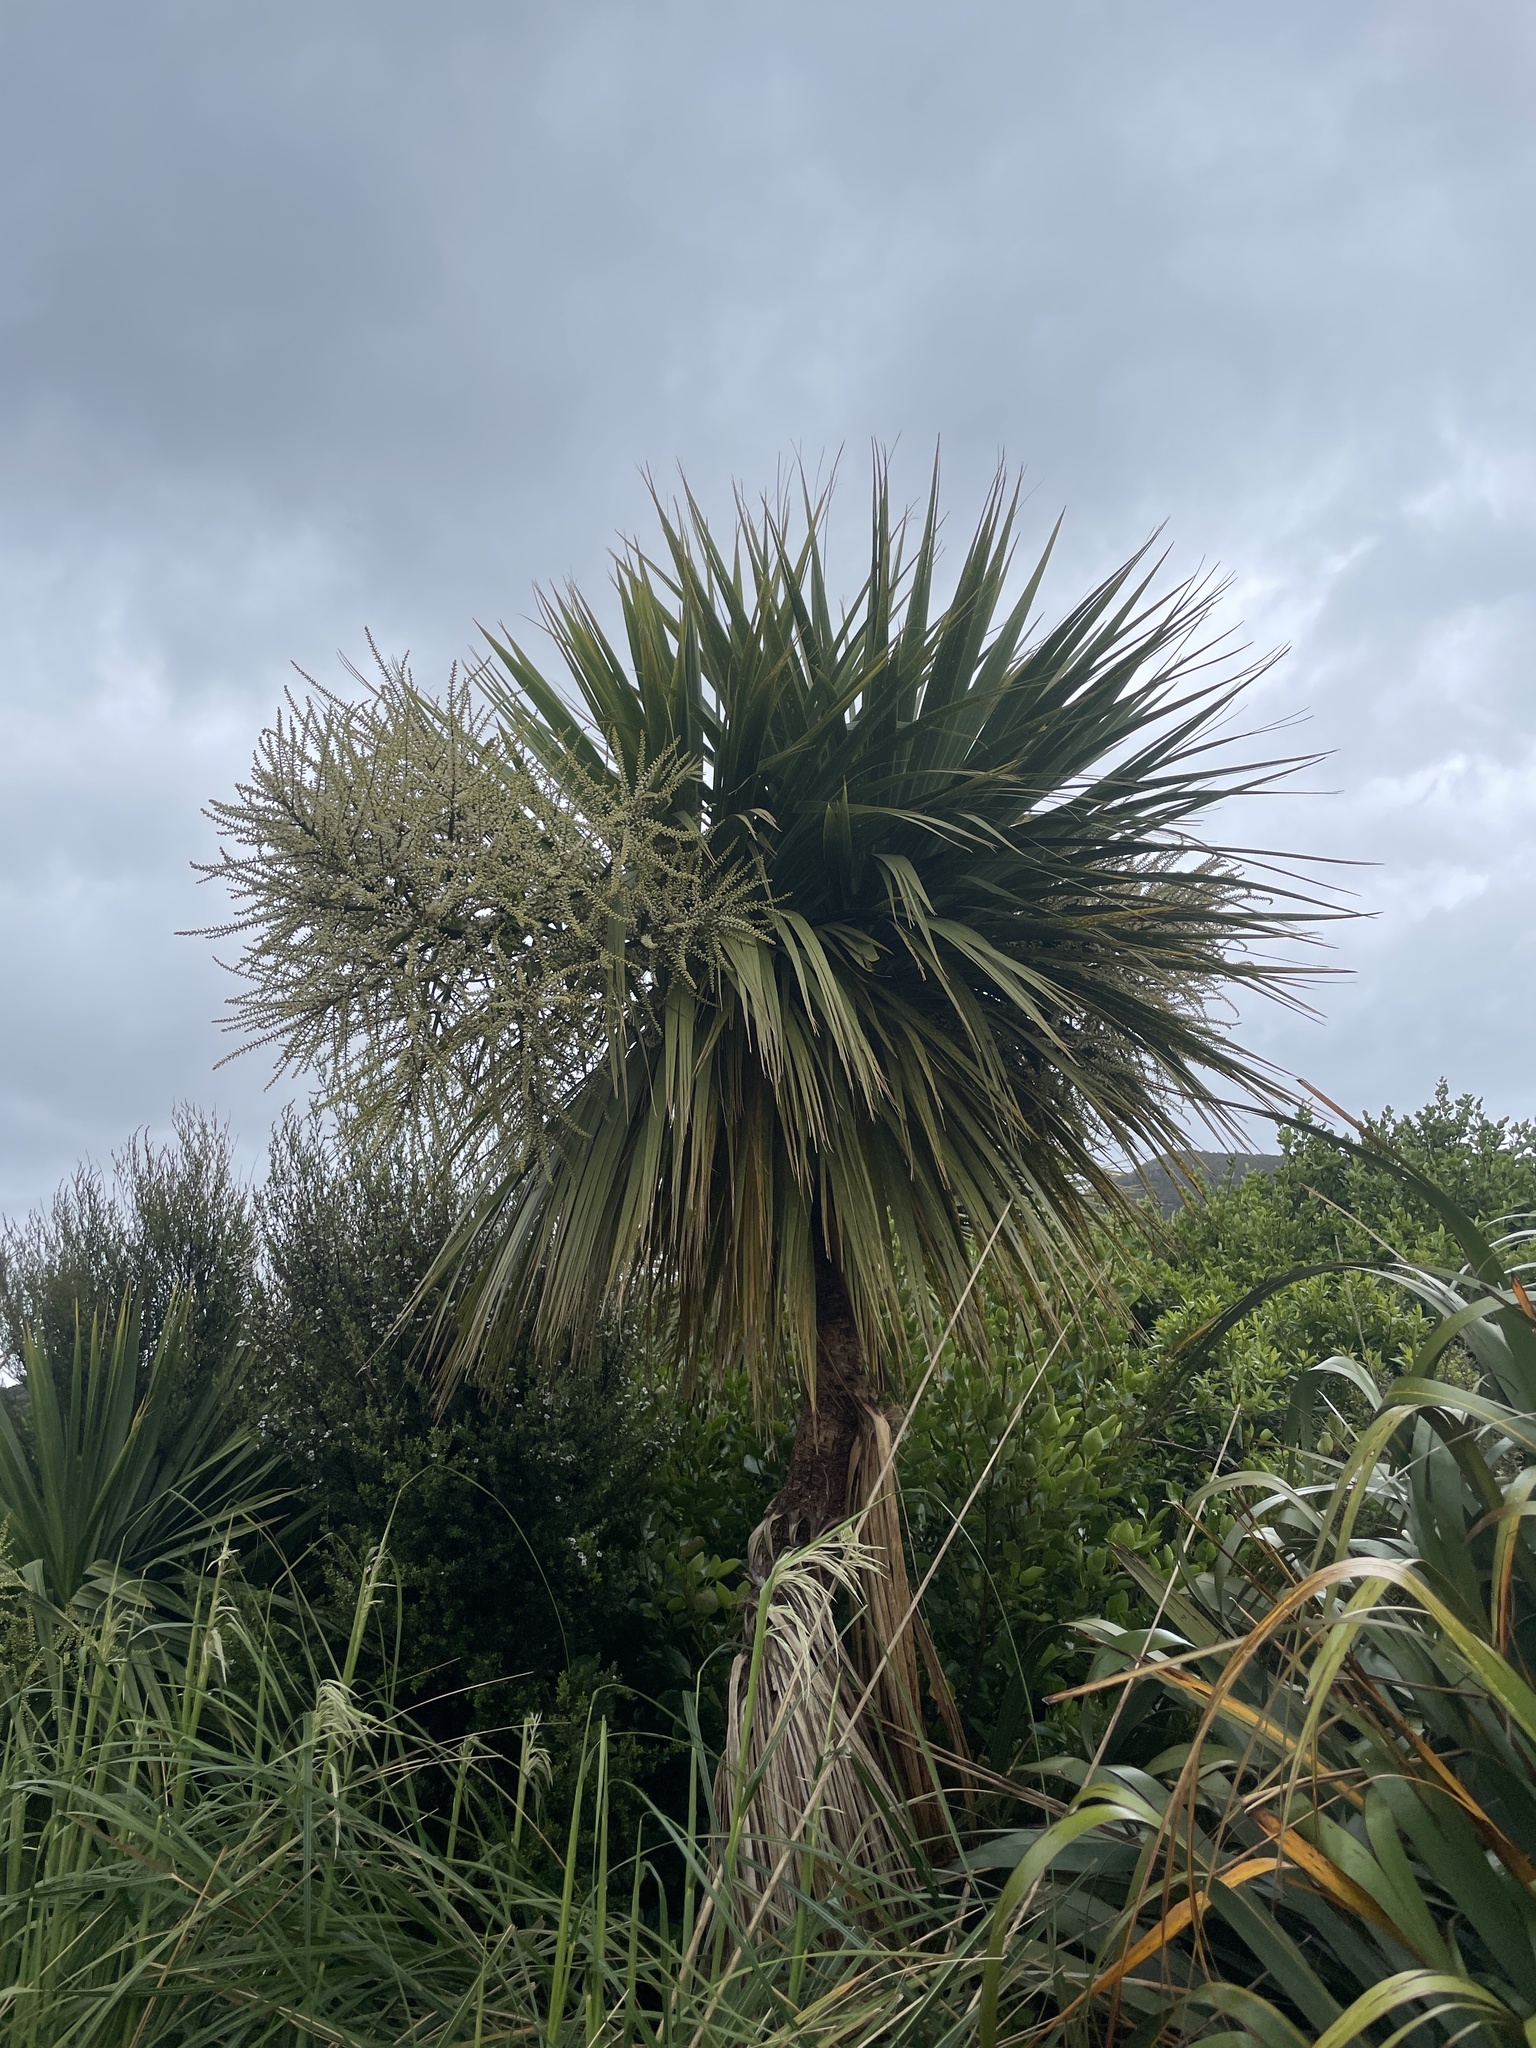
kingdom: Plantae
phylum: Tracheophyta
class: Liliopsida
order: Asparagales
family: Asparagaceae
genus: Cordyline
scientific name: Cordyline australis
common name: Cabbage-palm
